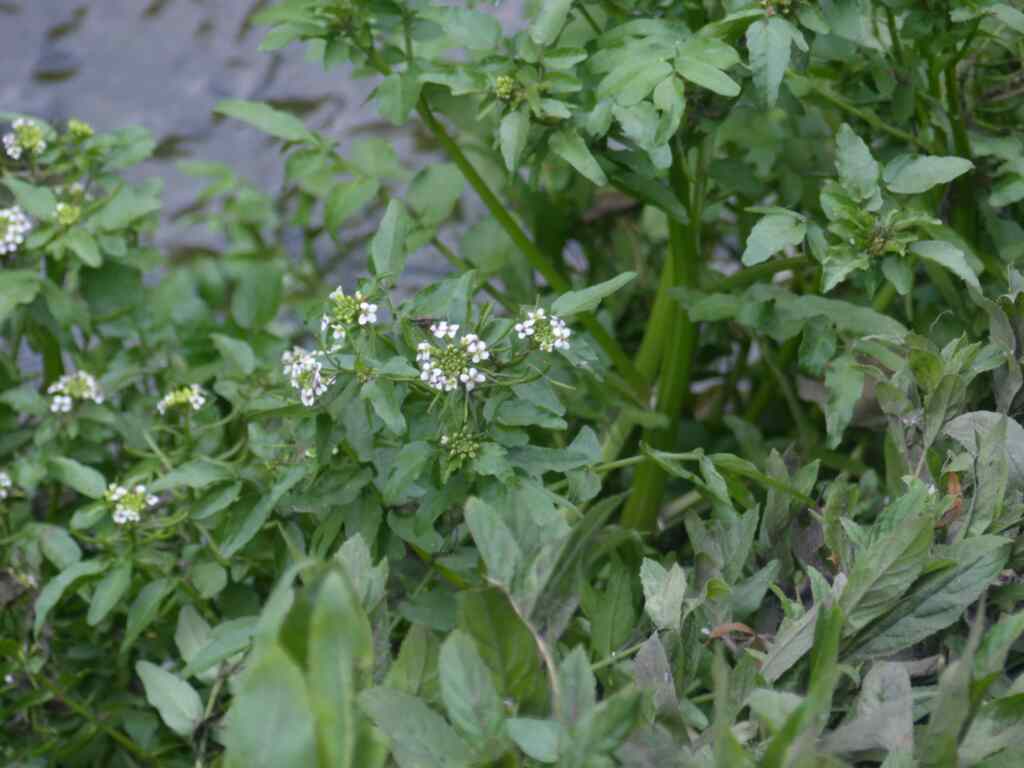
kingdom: Plantae
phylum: Tracheophyta
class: Magnoliopsida
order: Brassicales
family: Brassicaceae
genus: Nasturtium
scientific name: Nasturtium officinale
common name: Watercress
